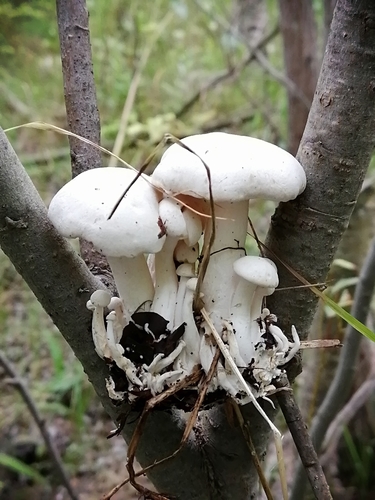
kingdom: Fungi
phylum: Basidiomycota
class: Agaricomycetes
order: Agaricales
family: Lyophyllaceae
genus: Lyophyllum
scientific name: Lyophyllum decastes
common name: Clustered domecap
